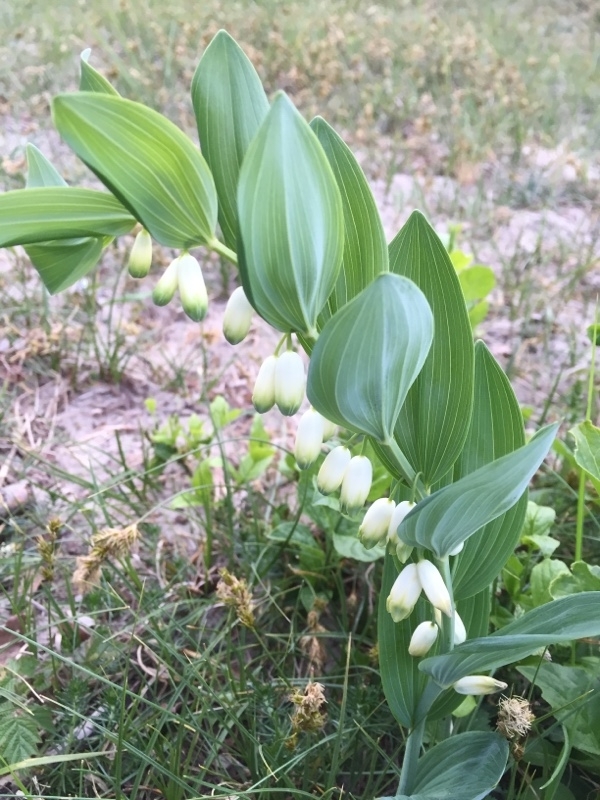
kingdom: Plantae
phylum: Tracheophyta
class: Liliopsida
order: Asparagales
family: Asparagaceae
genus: Polygonatum
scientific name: Polygonatum odoratum
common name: Angular solomon's-seal
